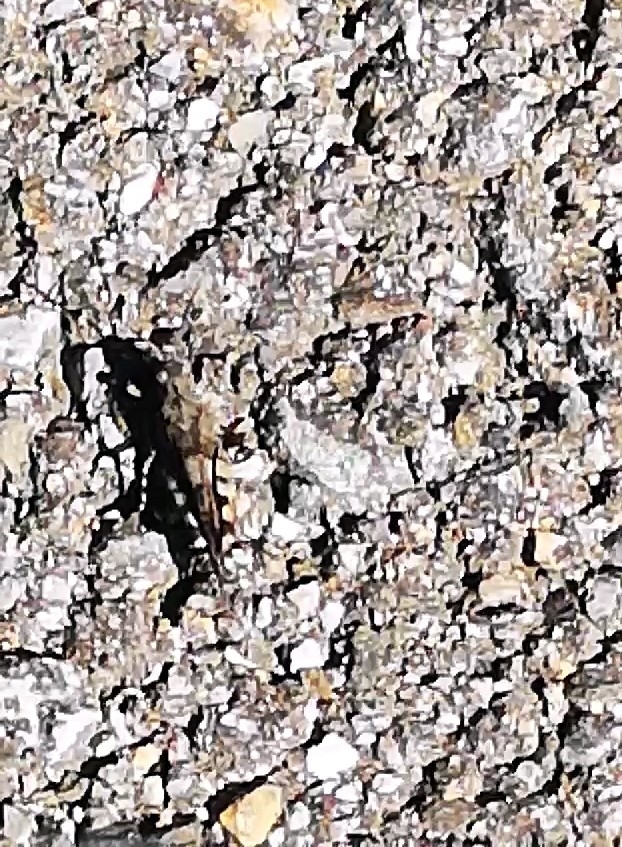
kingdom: Animalia
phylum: Arthropoda
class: Insecta
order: Orthoptera
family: Acrididae
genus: Oedipoda
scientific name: Oedipoda caerulescens
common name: Blue-winged grasshopper
